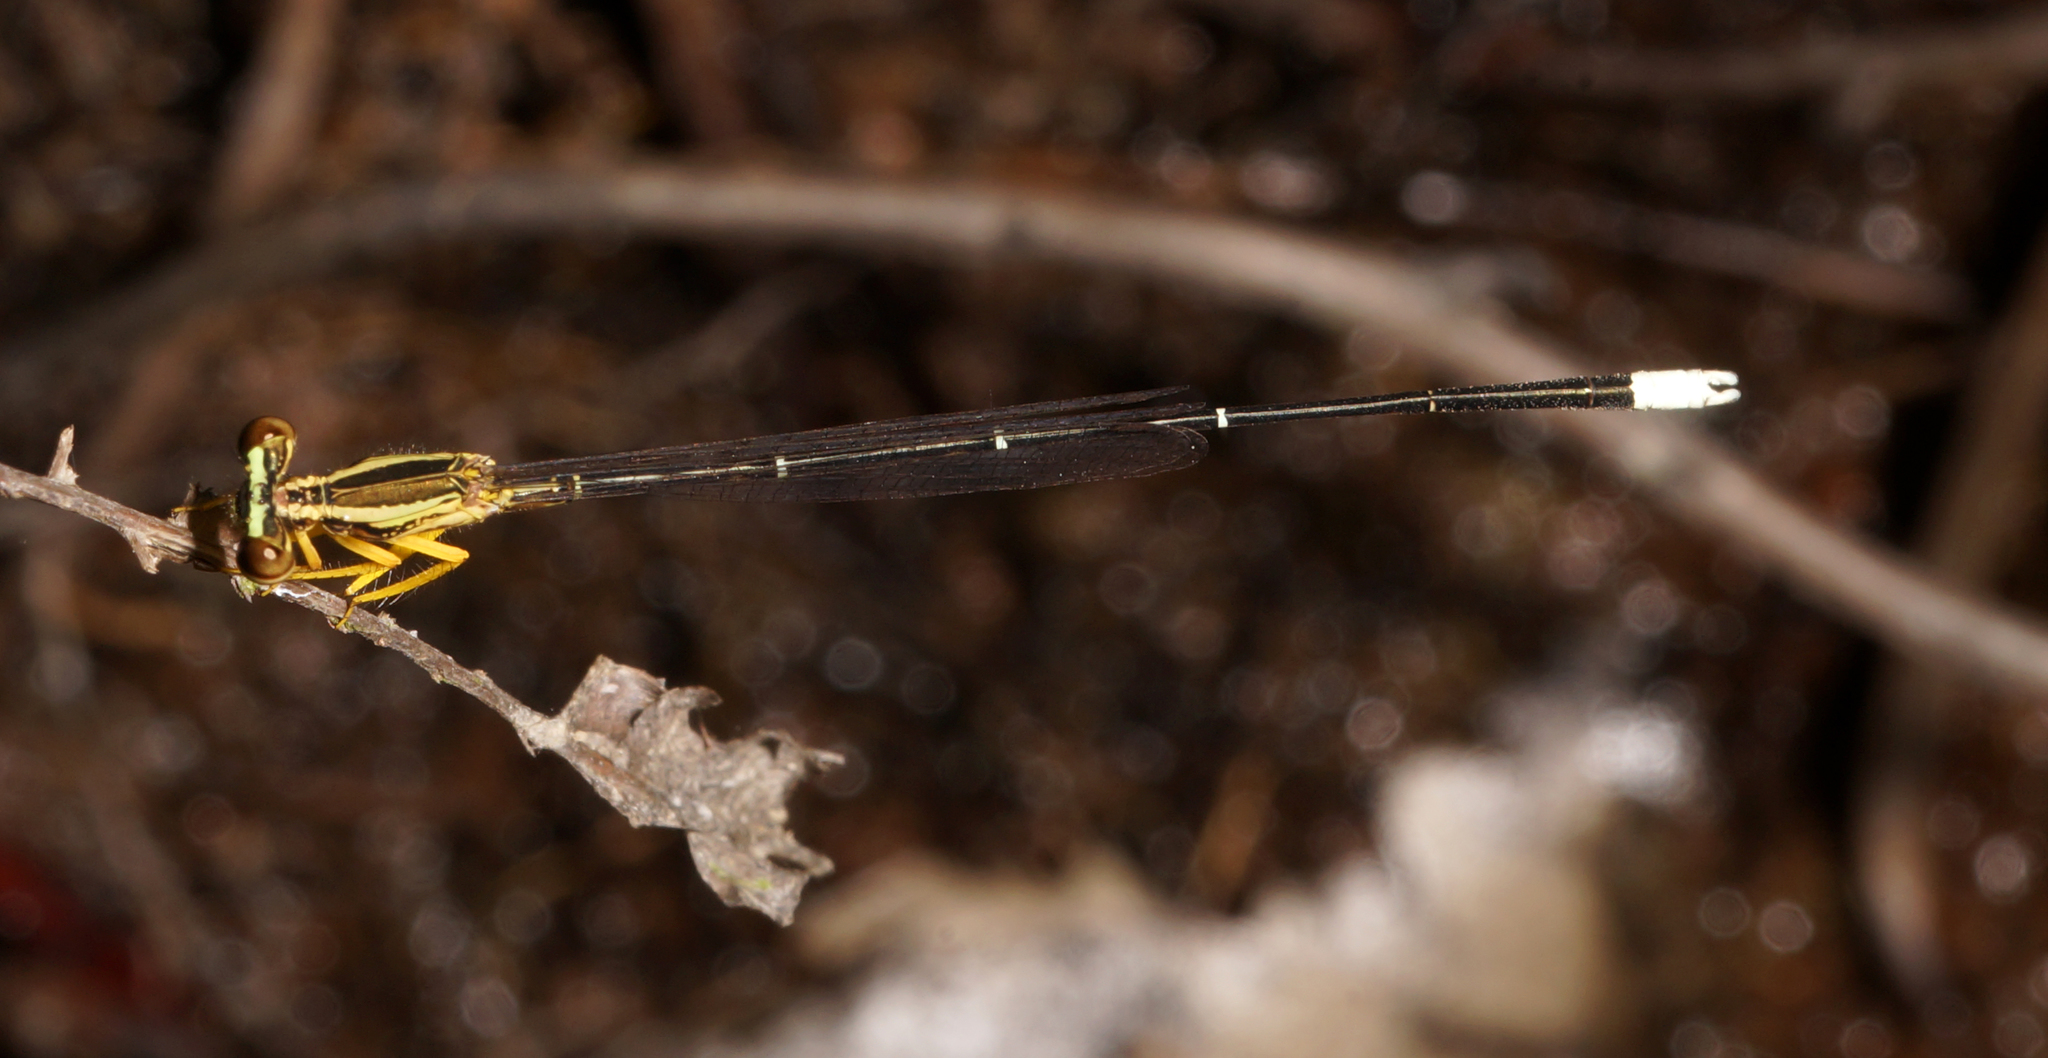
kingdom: Animalia
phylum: Arthropoda
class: Insecta
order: Odonata
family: Platycnemididae
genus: Copera
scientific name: Copera marginipes
